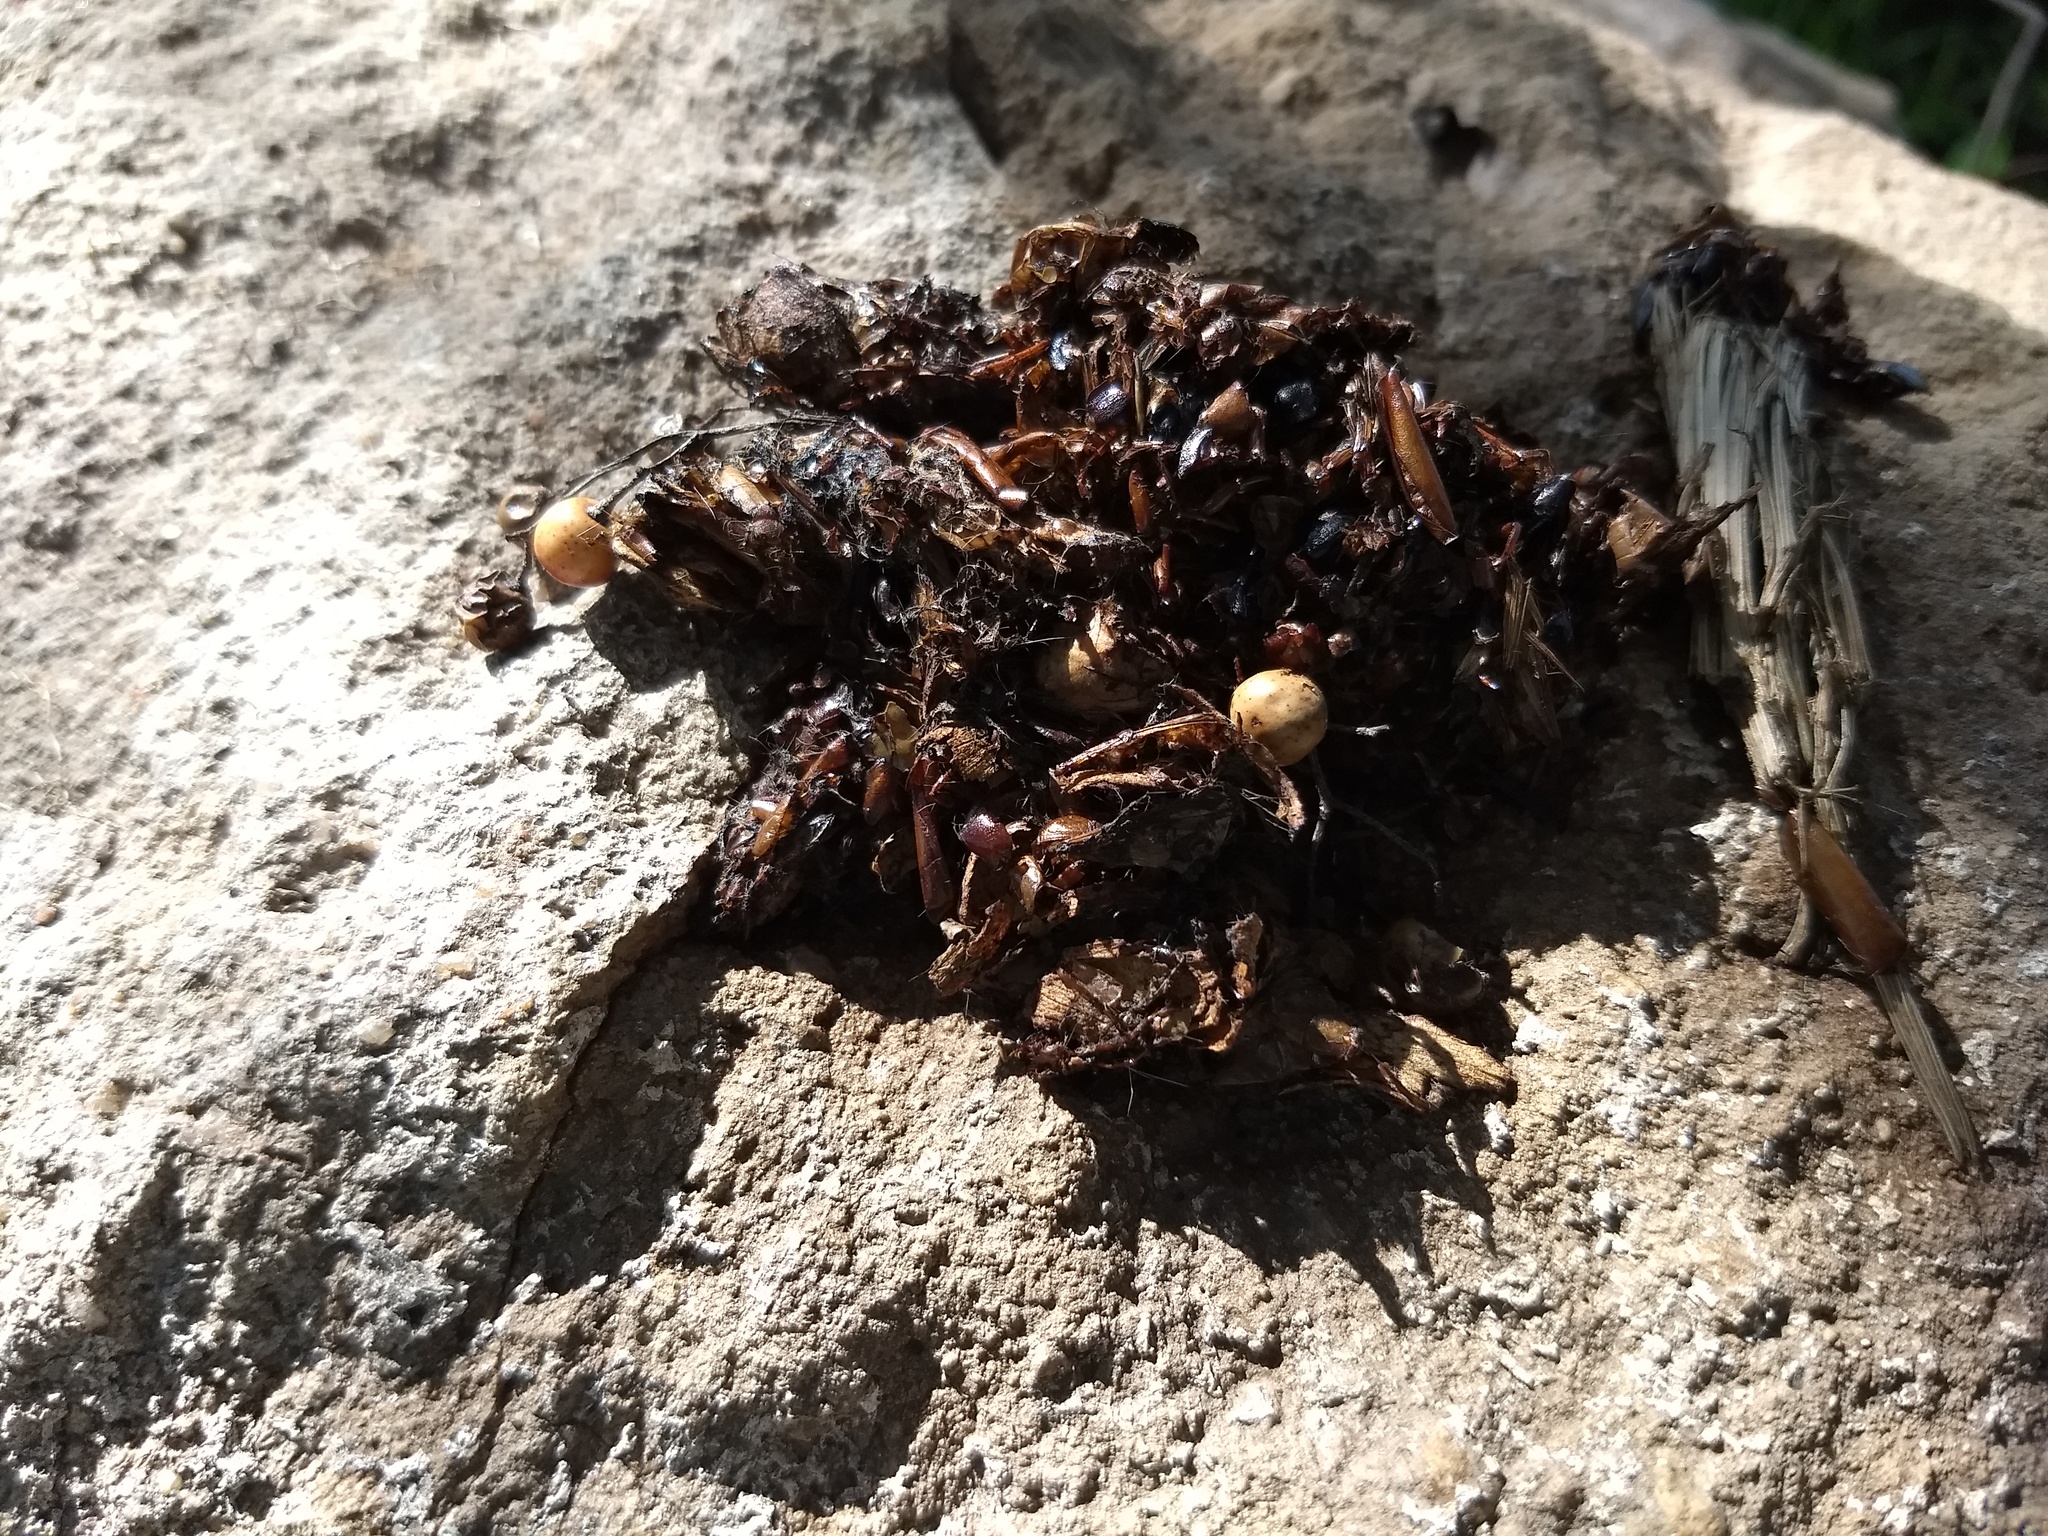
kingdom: Animalia
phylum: Chordata
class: Mammalia
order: Carnivora
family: Canidae
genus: Urocyon
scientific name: Urocyon cinereoargenteus
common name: Gray fox
